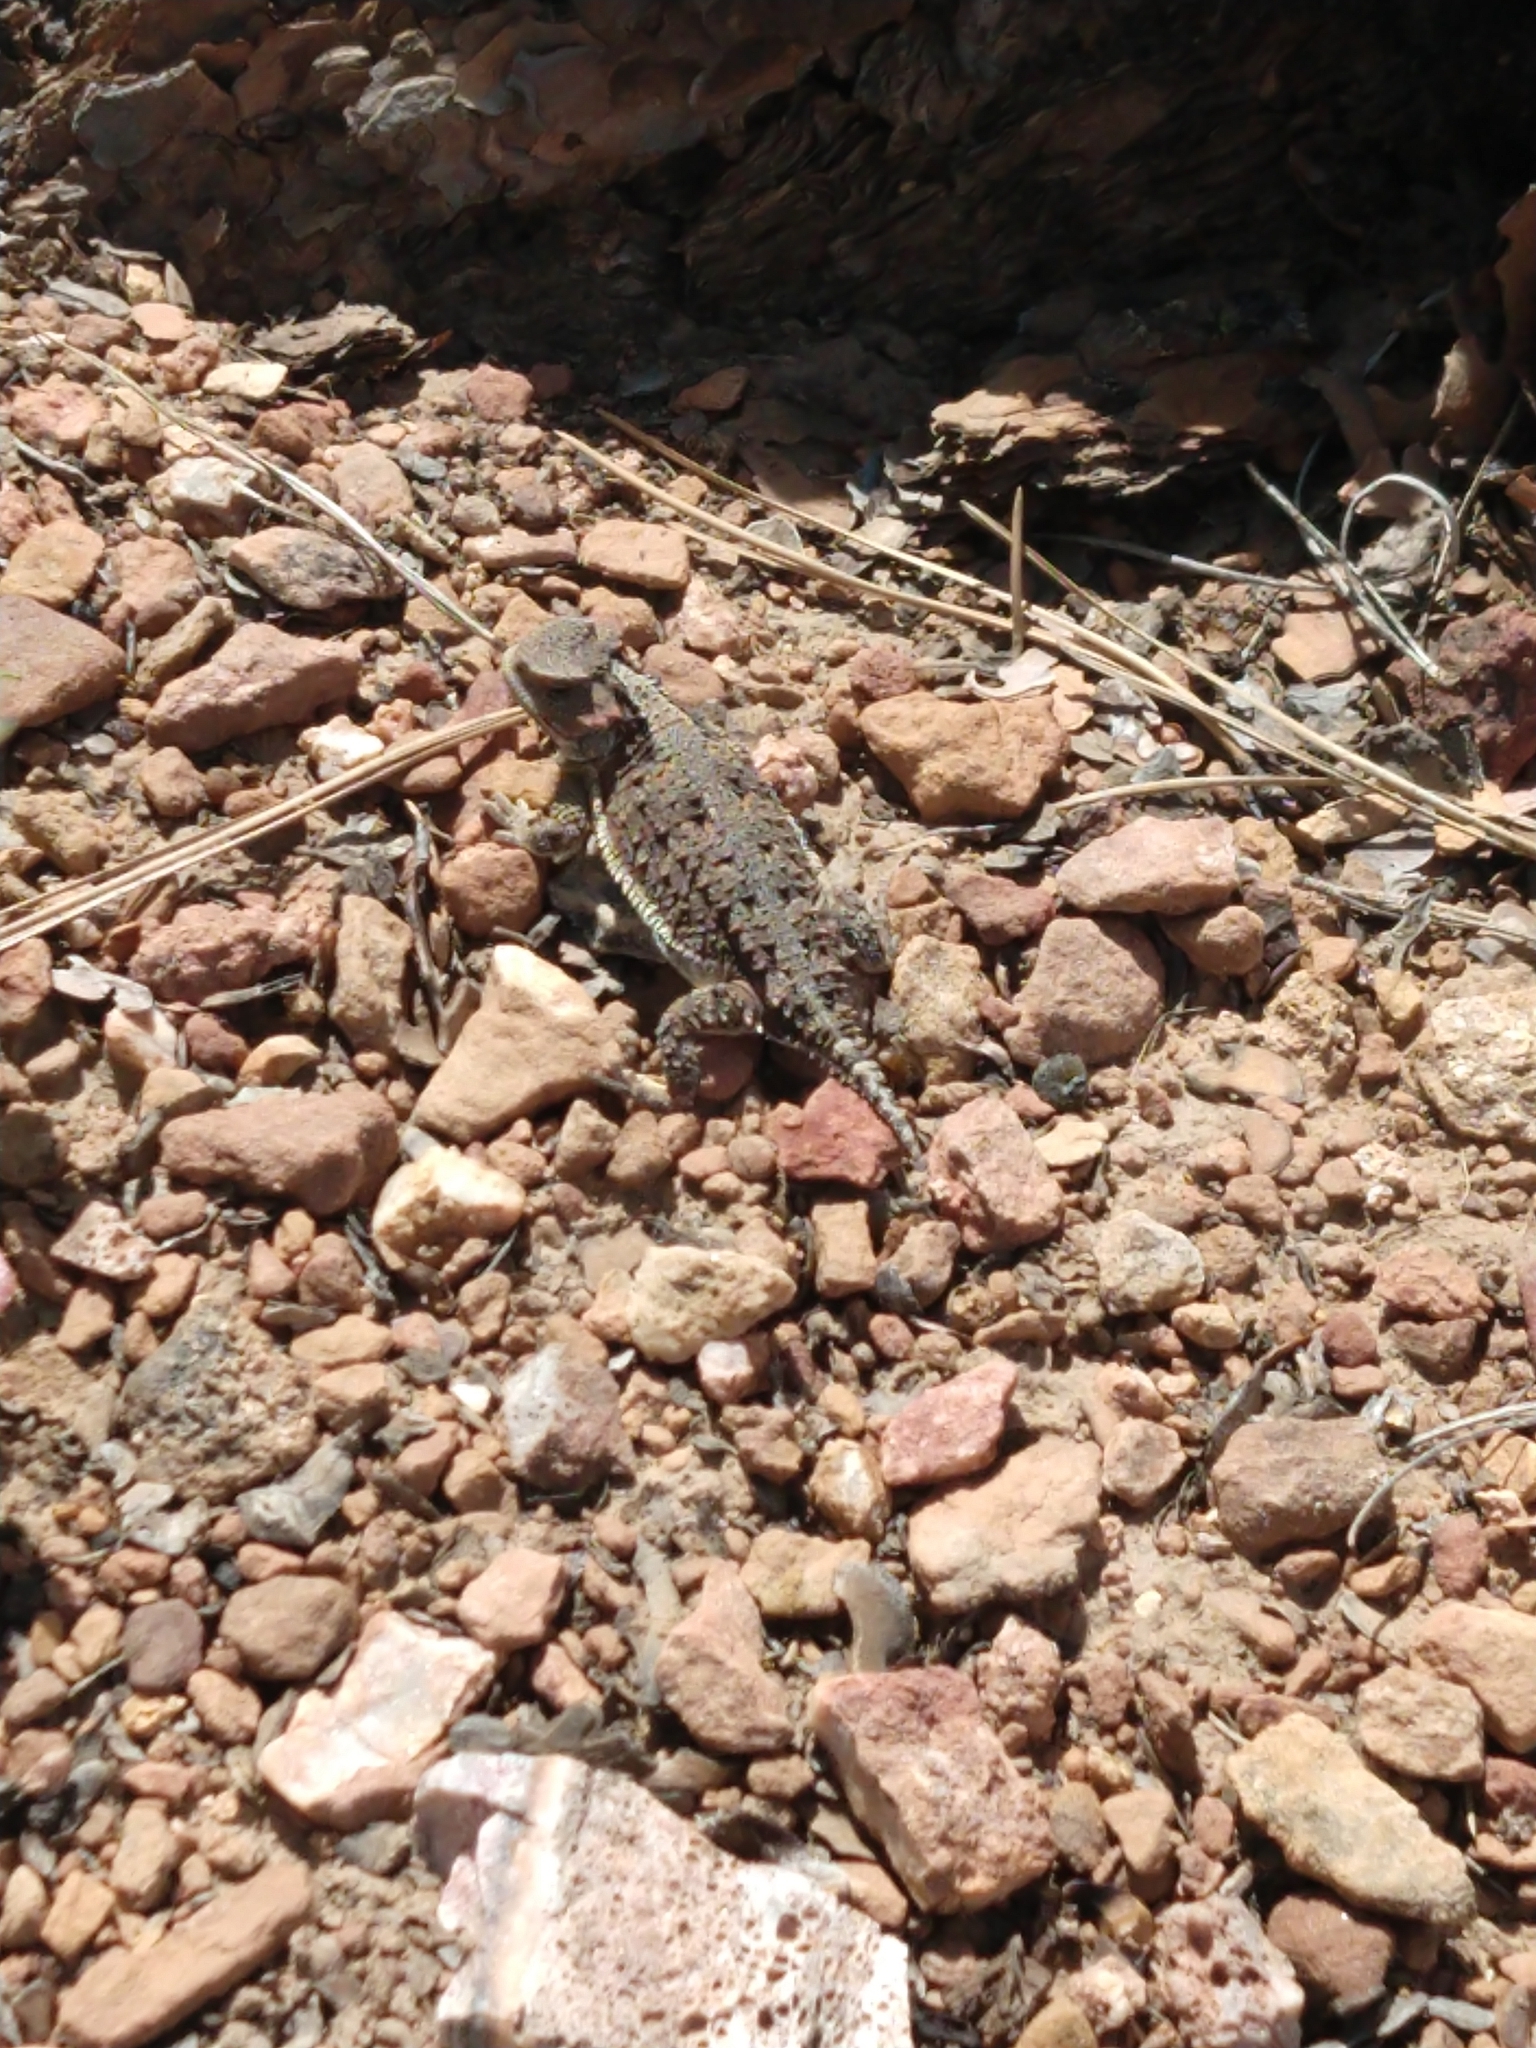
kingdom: Animalia
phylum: Chordata
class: Squamata
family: Phrynosomatidae
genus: Phrynosoma
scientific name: Phrynosoma hernandesi
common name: Greater short-horned lizard
